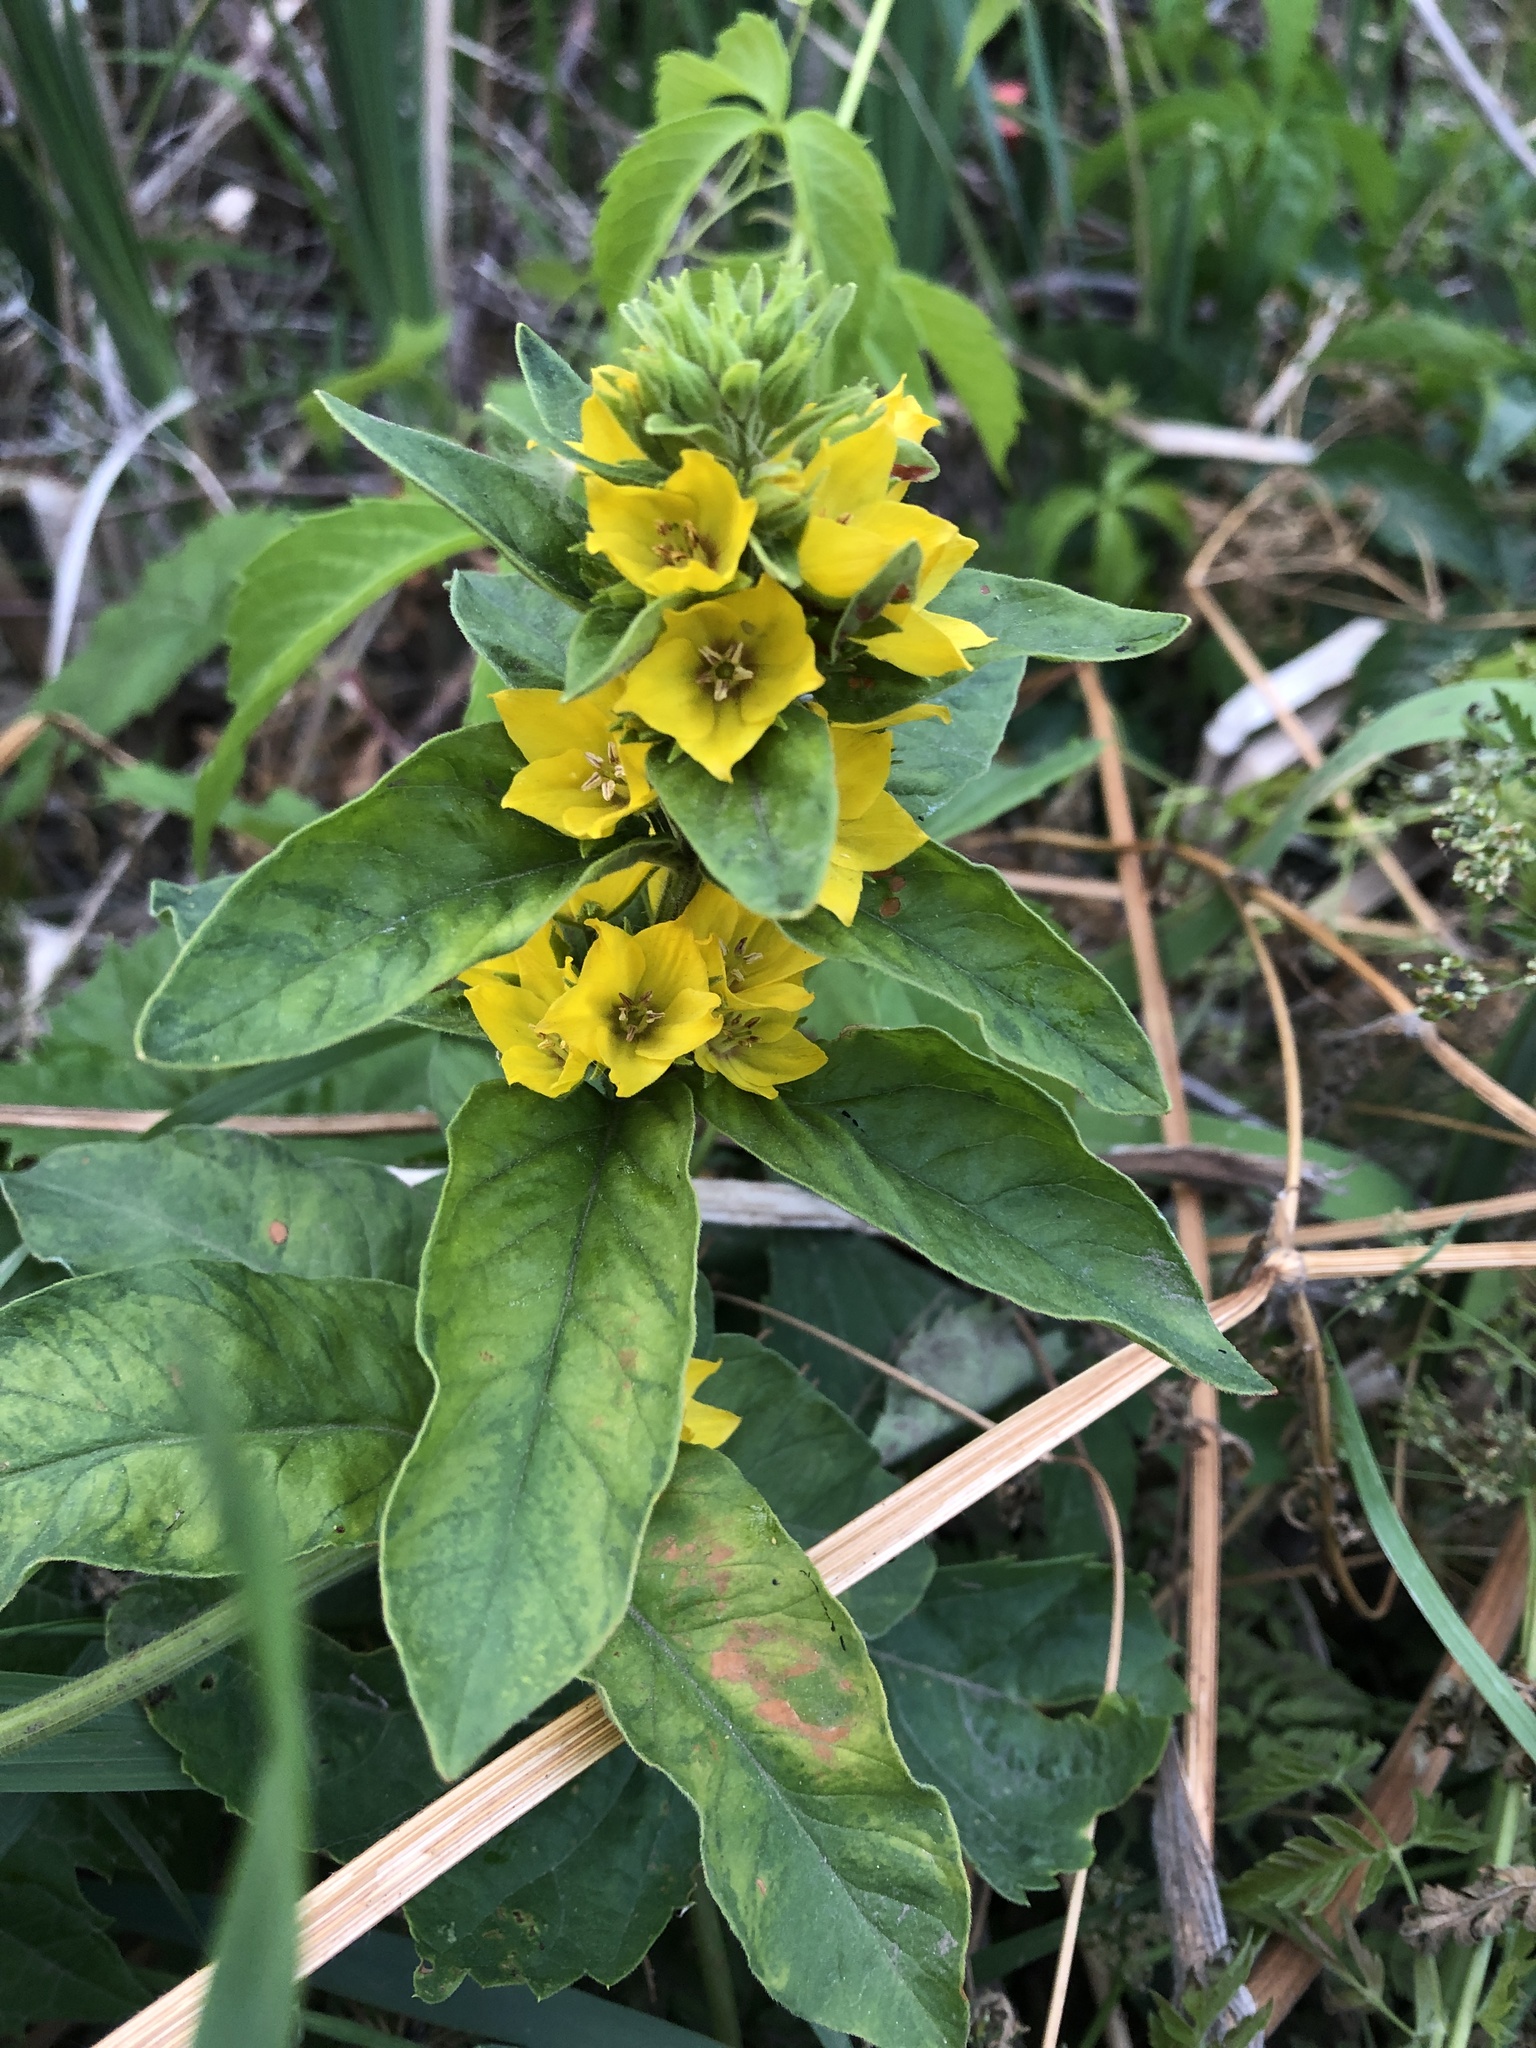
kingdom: Plantae
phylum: Tracheophyta
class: Magnoliopsida
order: Ericales
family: Primulaceae
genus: Lysimachia
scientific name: Lysimachia punctata
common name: Dotted loosestrife
